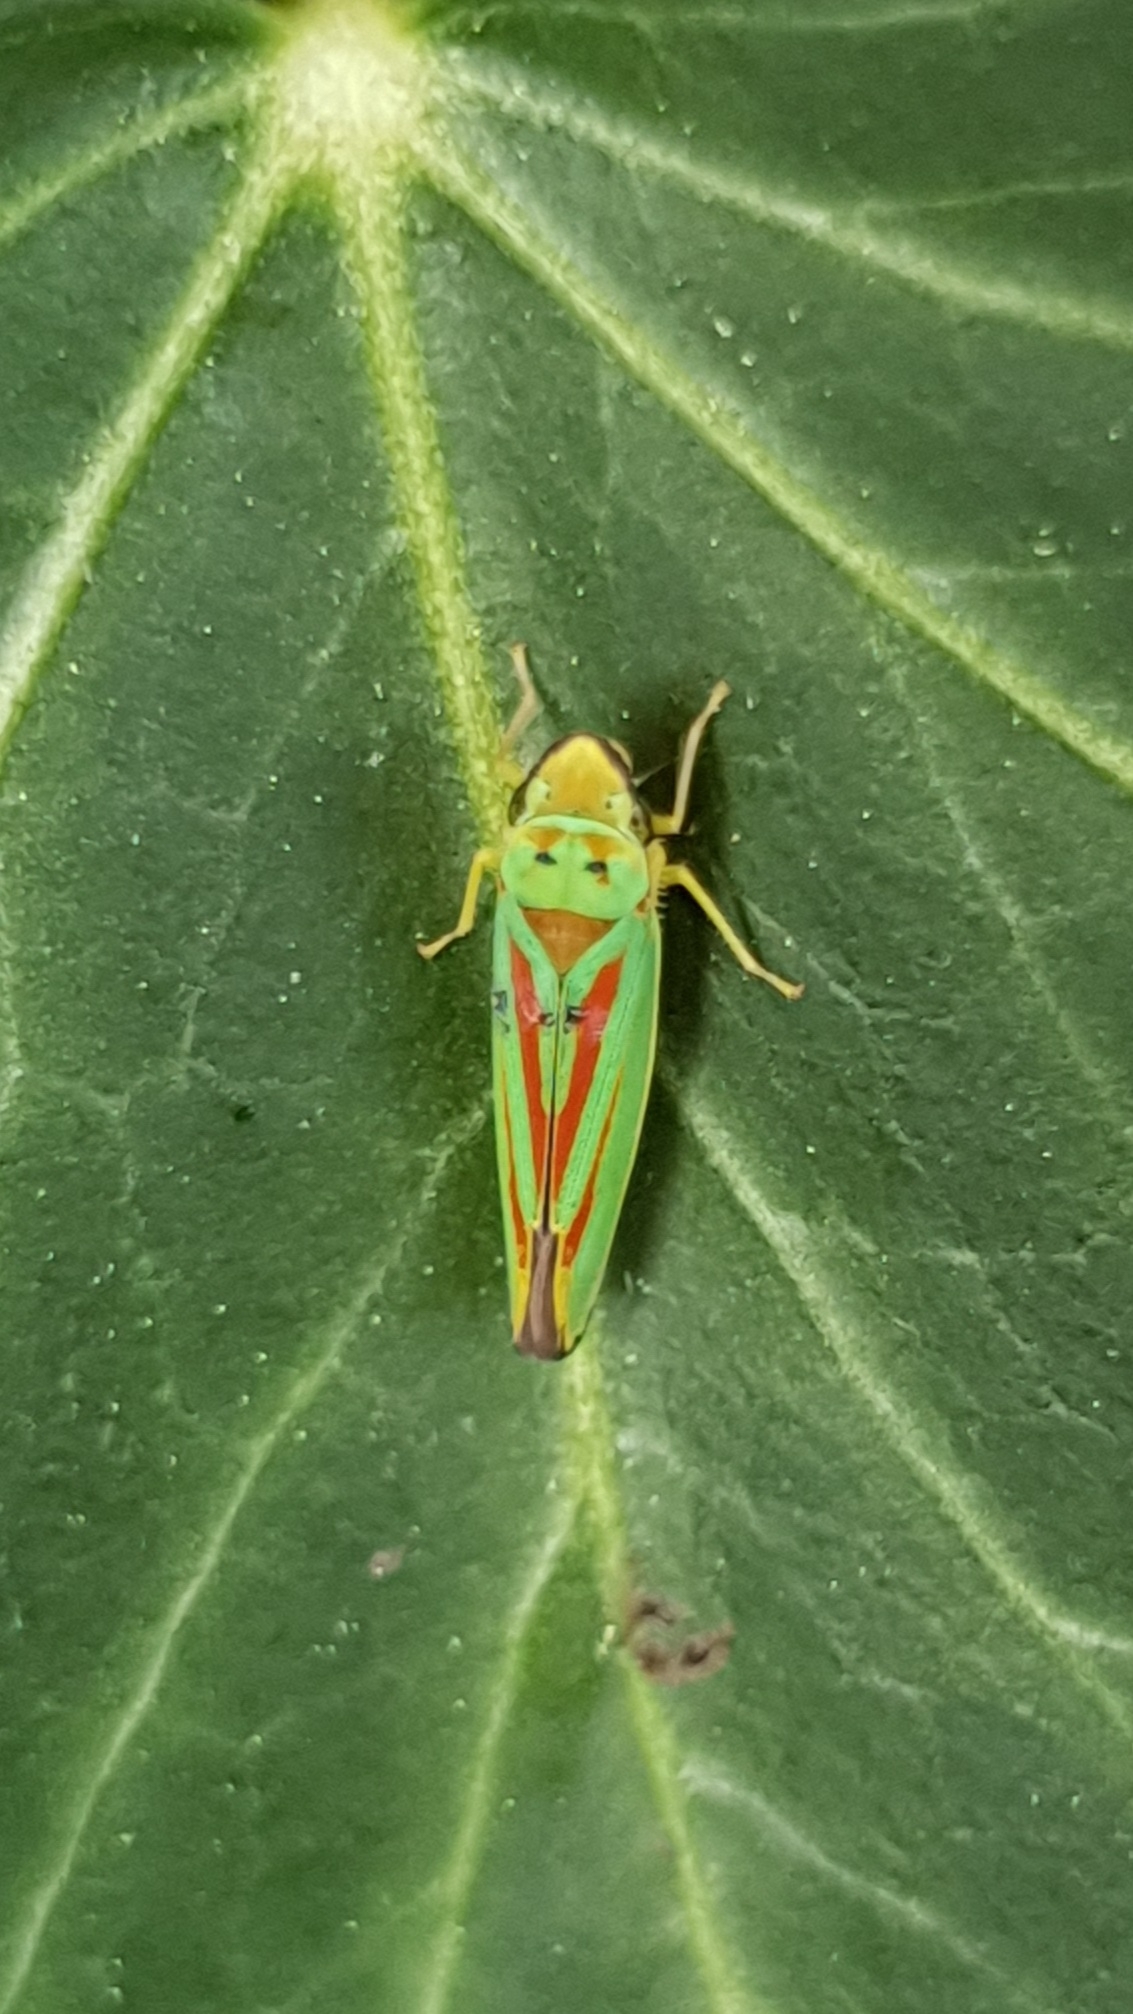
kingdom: Animalia
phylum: Arthropoda
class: Insecta
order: Hemiptera
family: Cicadellidae
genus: Graphocephala
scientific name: Graphocephala fennahi
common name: Rhododendron leafhopper
